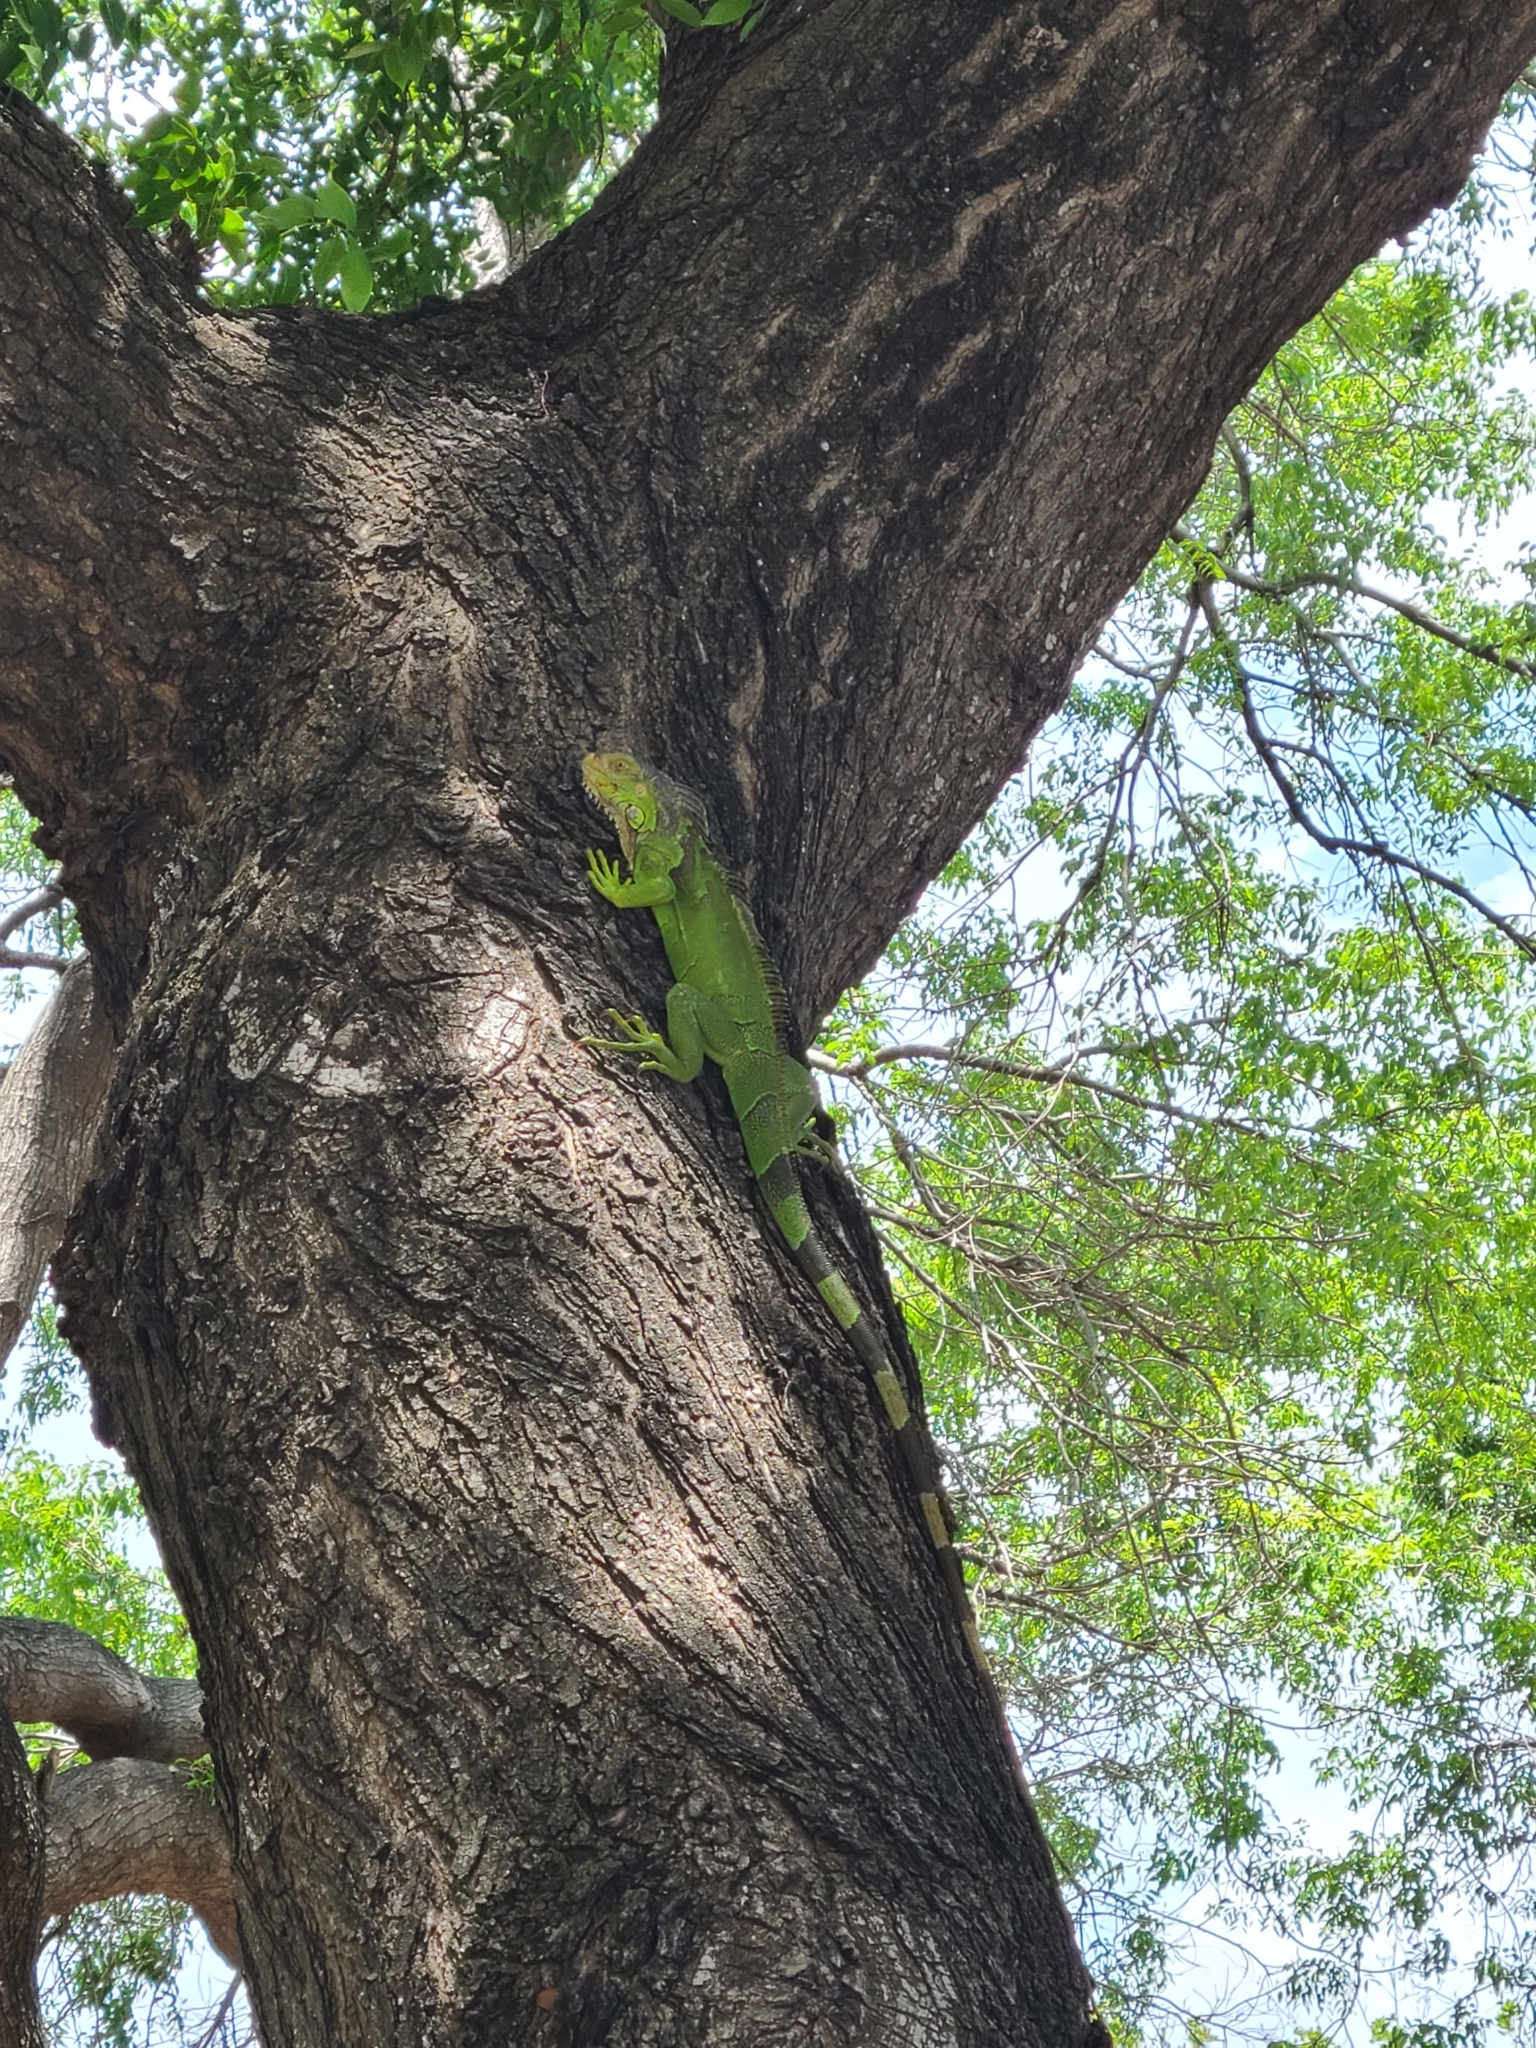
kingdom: Animalia
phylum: Chordata
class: Squamata
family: Iguanidae
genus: Iguana
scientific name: Iguana iguana
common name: Green iguana
